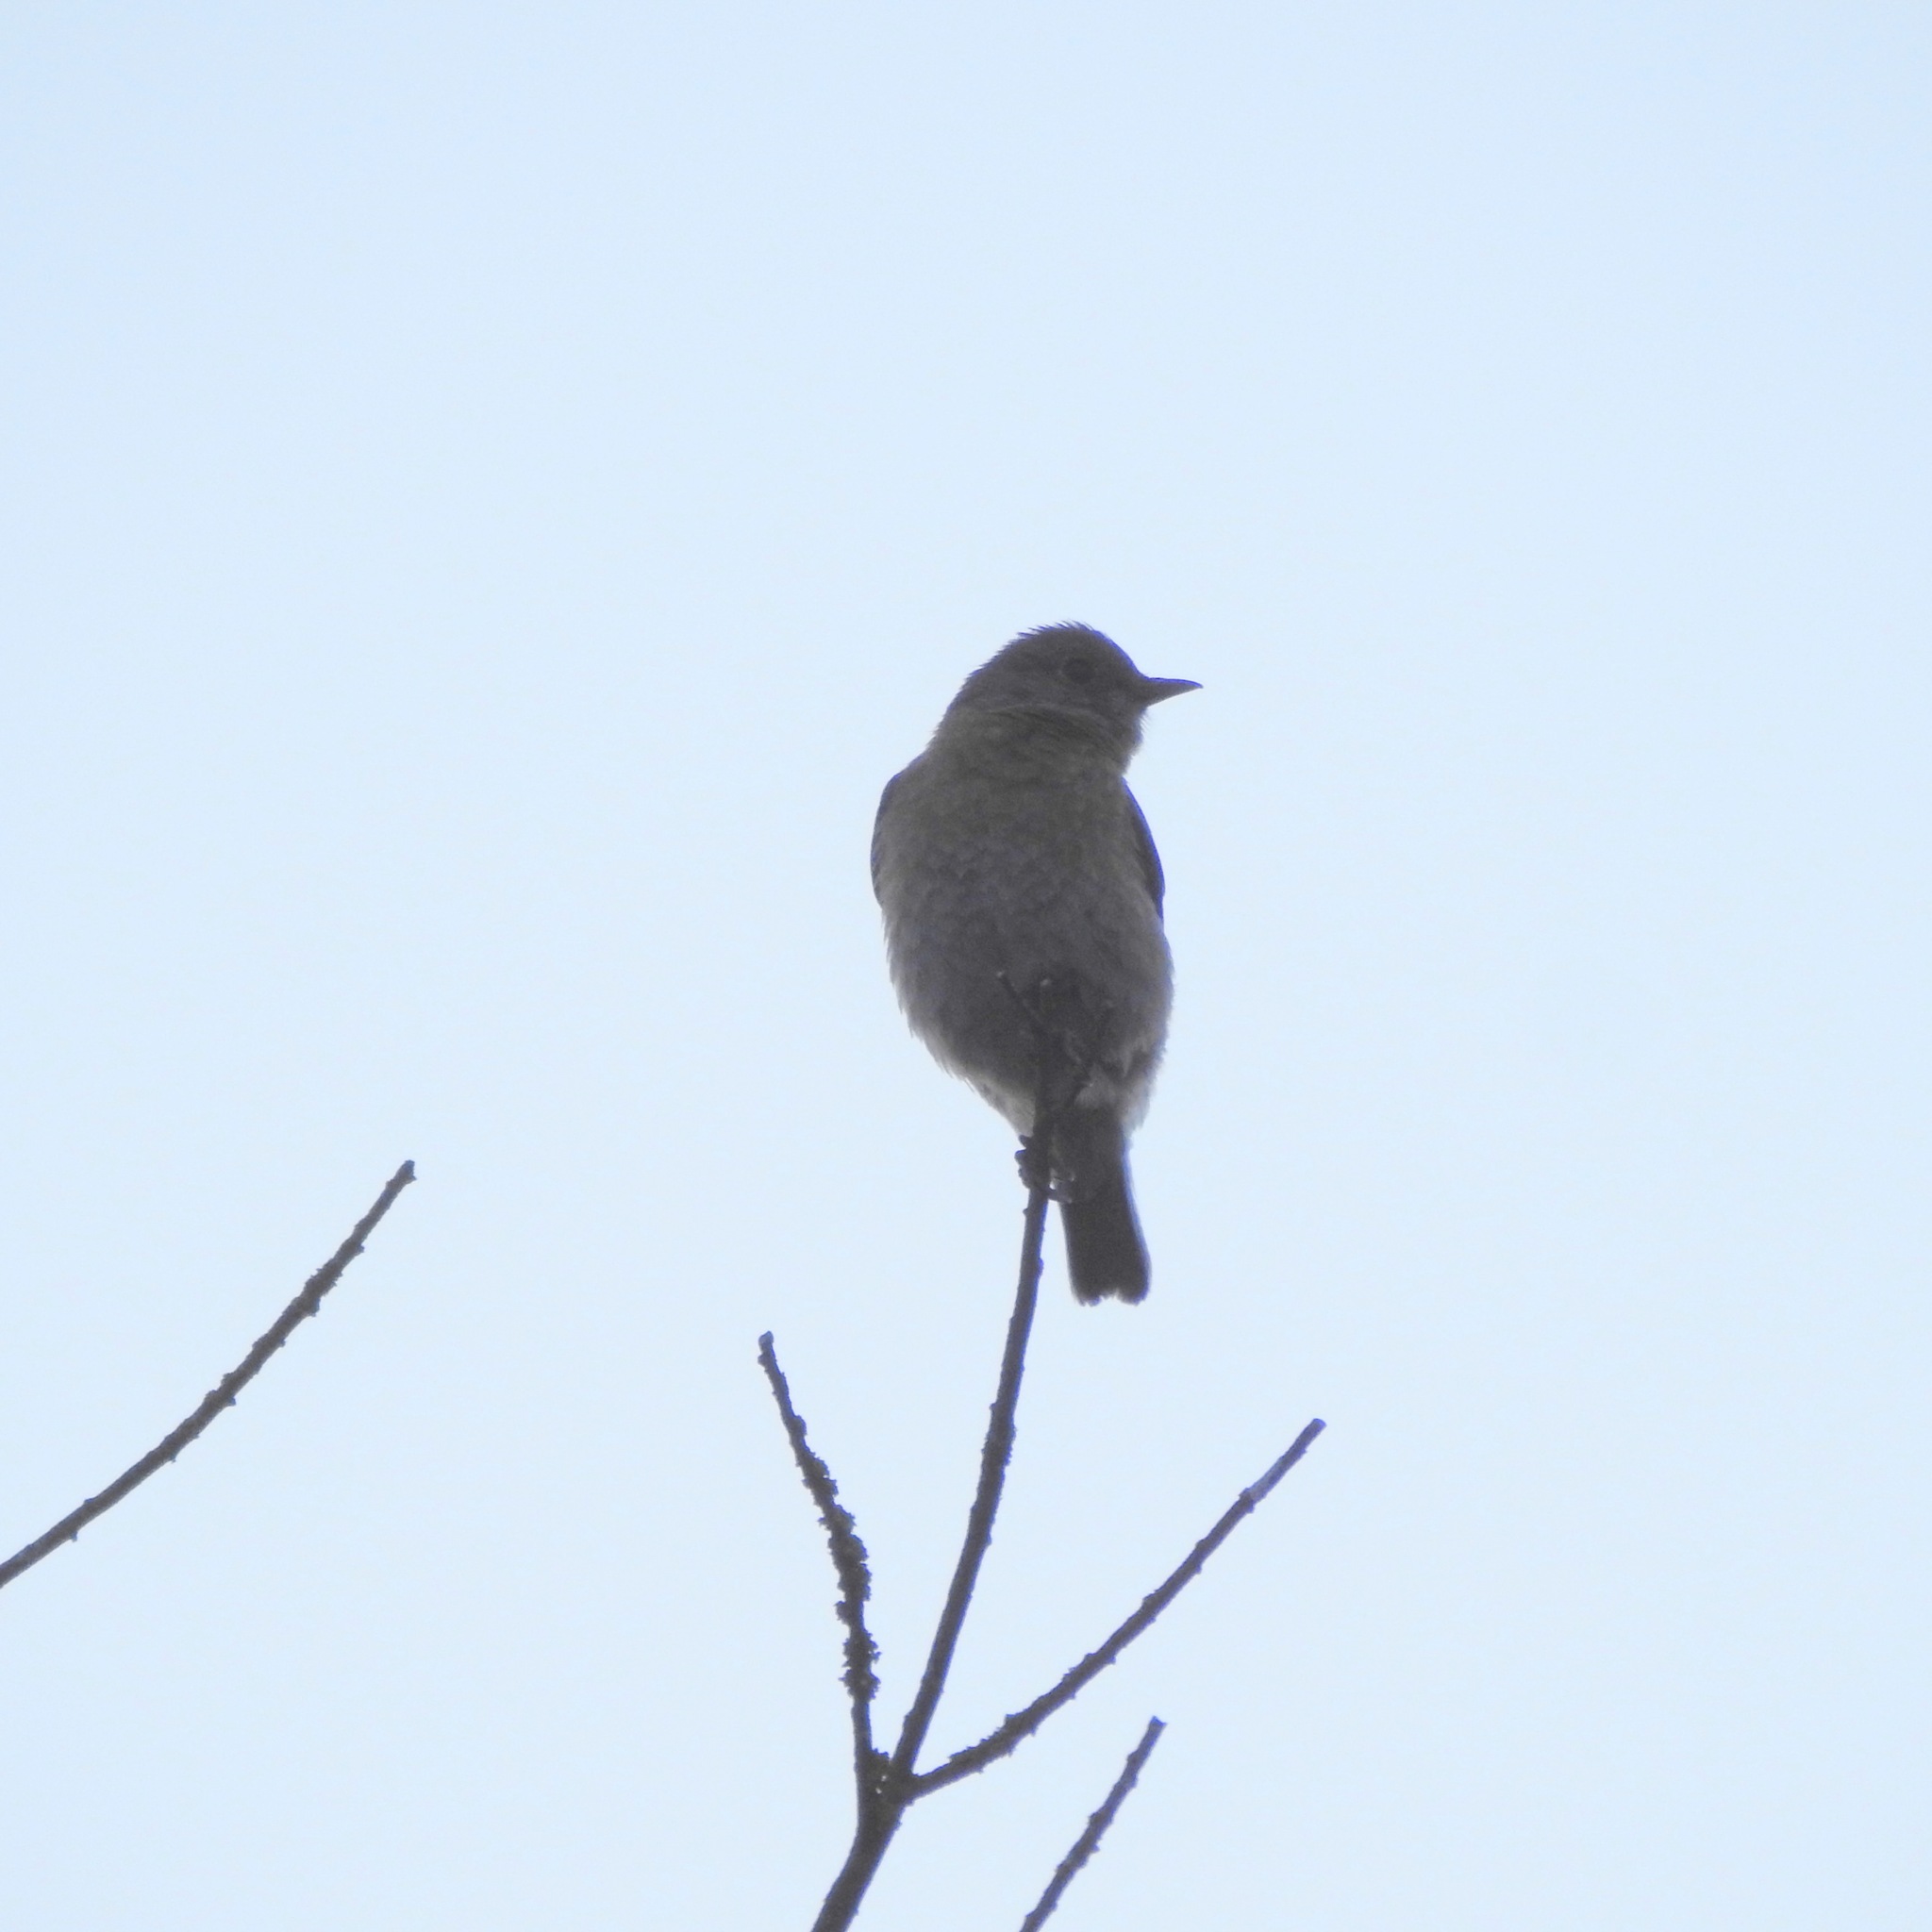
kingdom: Animalia
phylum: Chordata
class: Aves
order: Passeriformes
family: Turdidae
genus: Sialia
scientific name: Sialia mexicana
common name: Western bluebird
